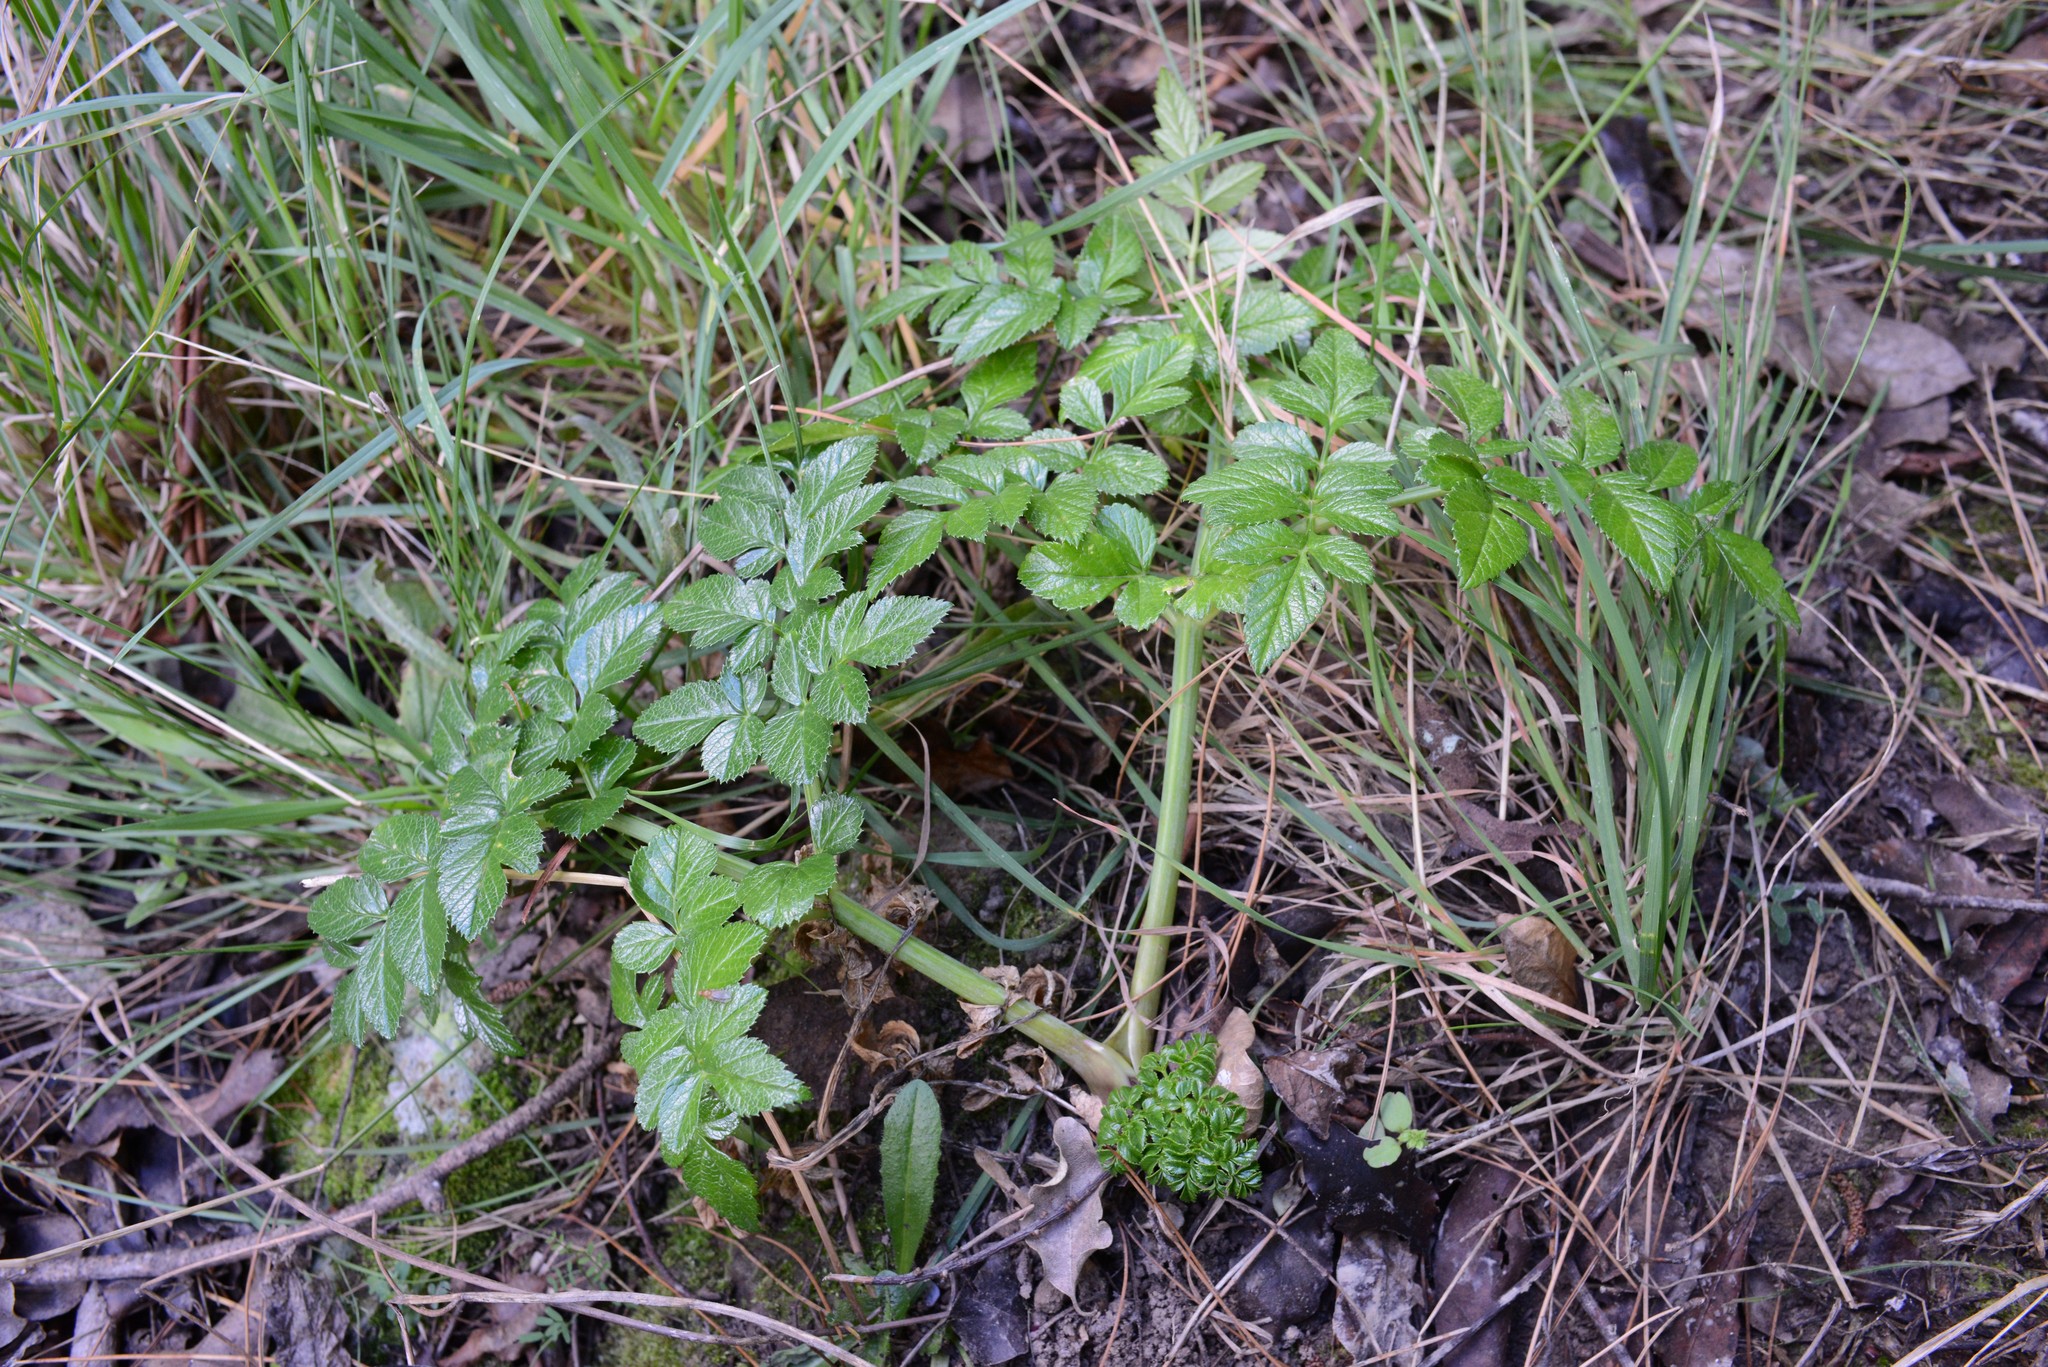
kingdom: Plantae
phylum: Tracheophyta
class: Magnoliopsida
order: Apiales
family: Apiaceae
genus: Angelica
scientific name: Angelica pachycarpa
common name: Portuguese angelica
